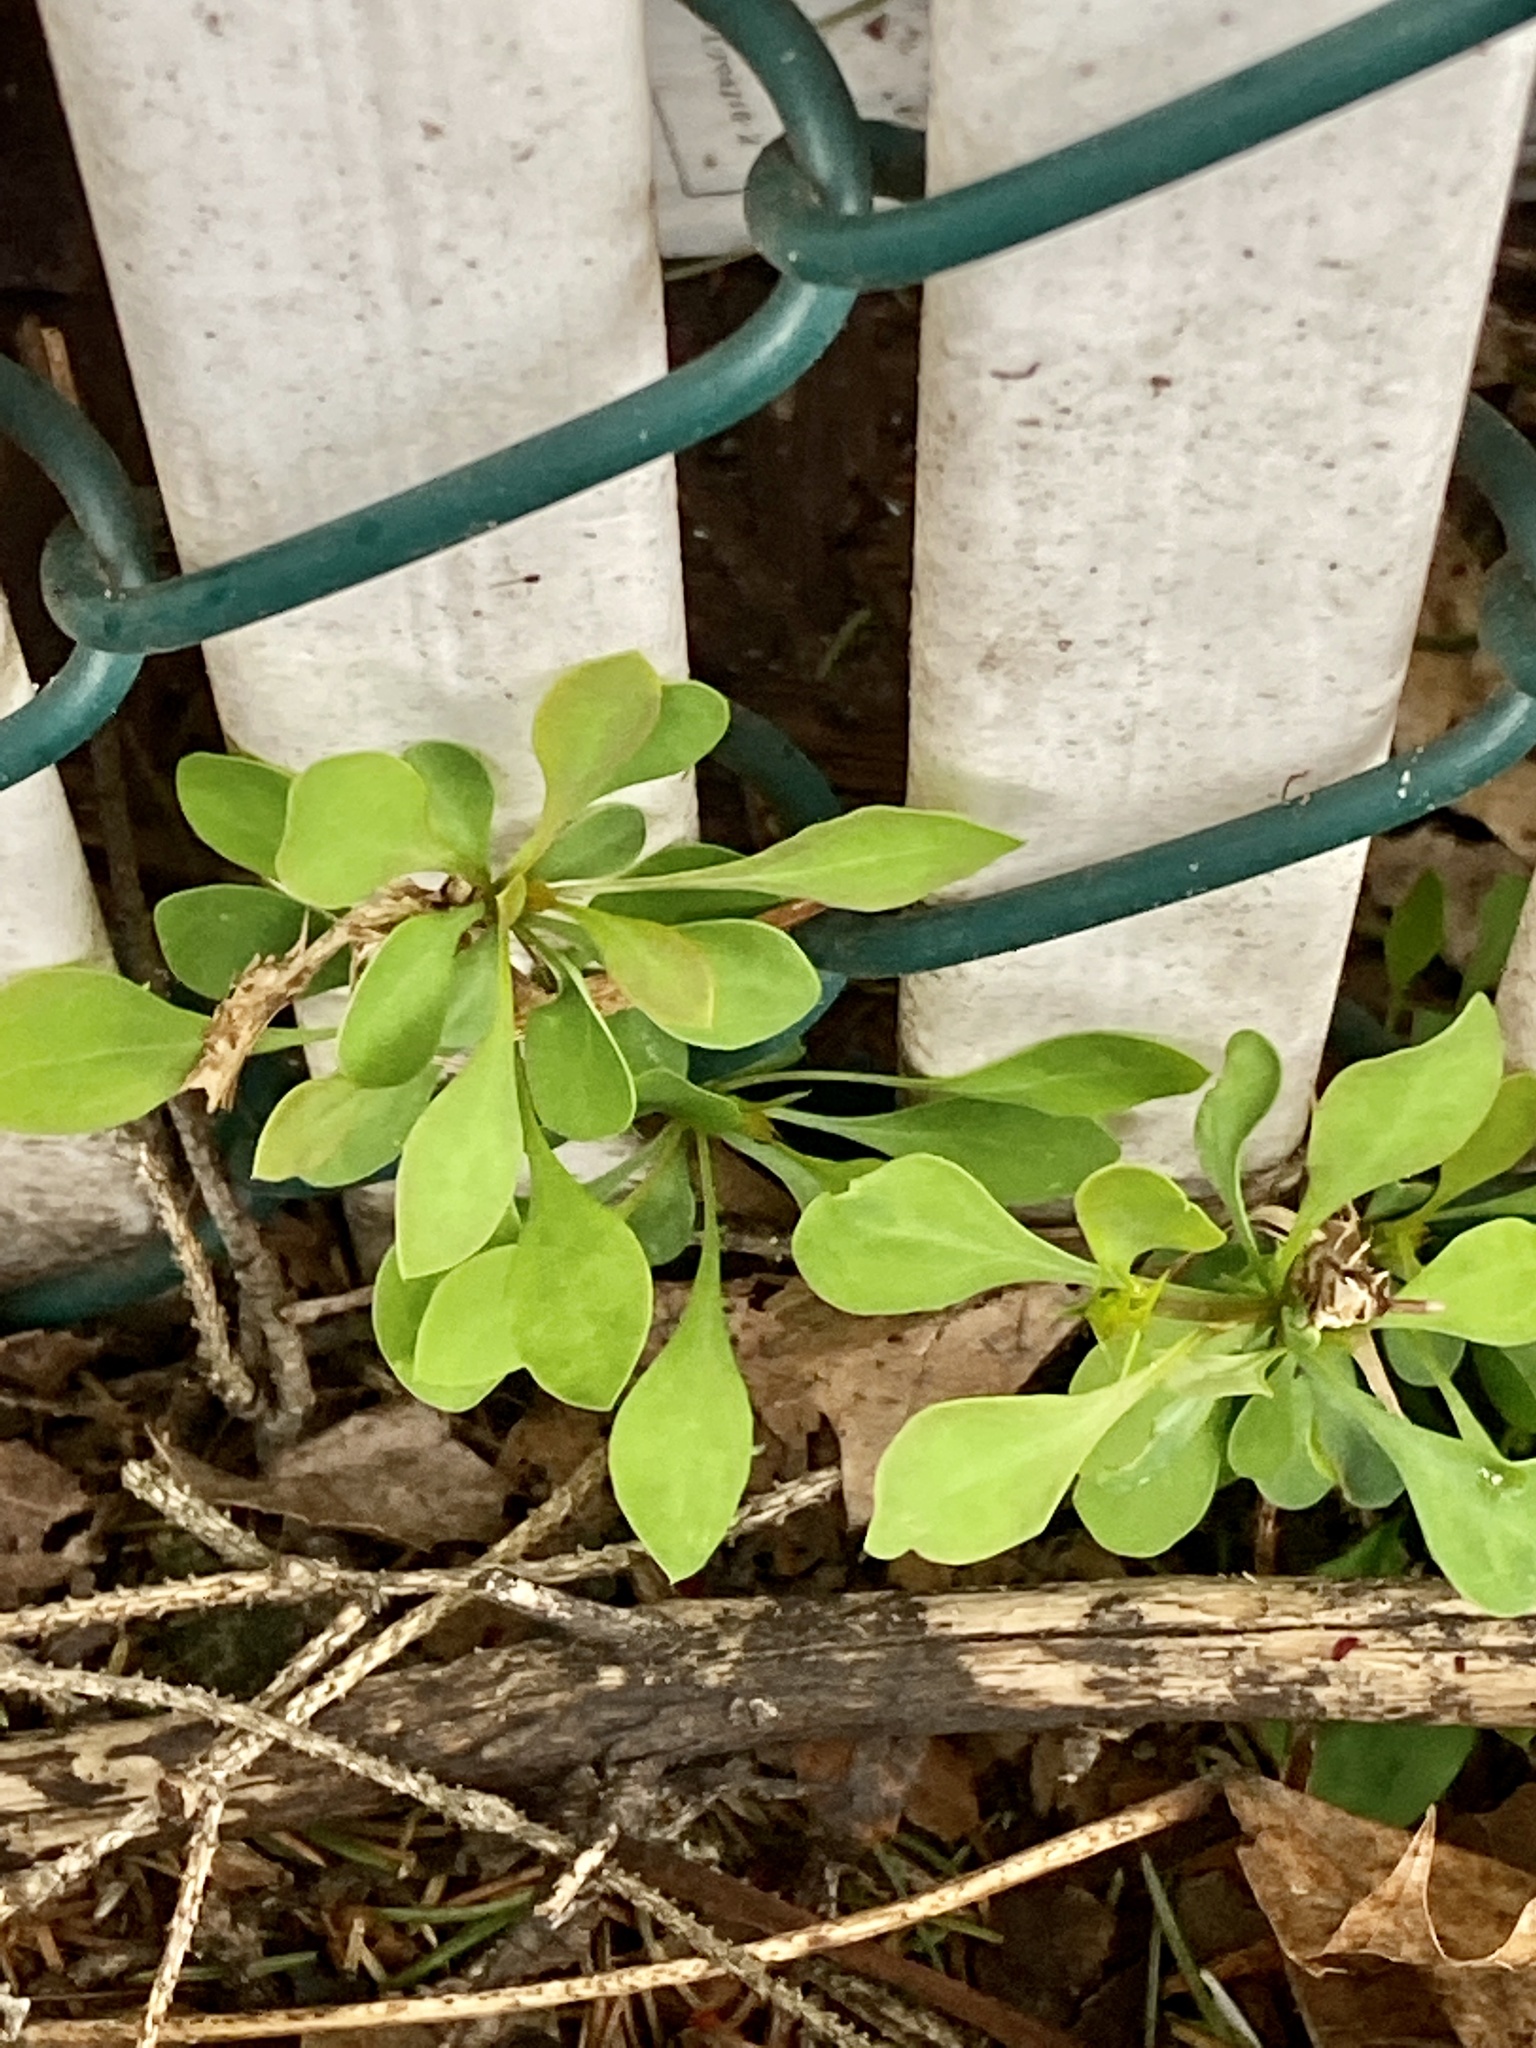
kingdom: Plantae
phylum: Tracheophyta
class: Magnoliopsida
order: Ranunculales
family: Berberidaceae
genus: Berberis
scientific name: Berberis thunbergii
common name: Japanese barberry
